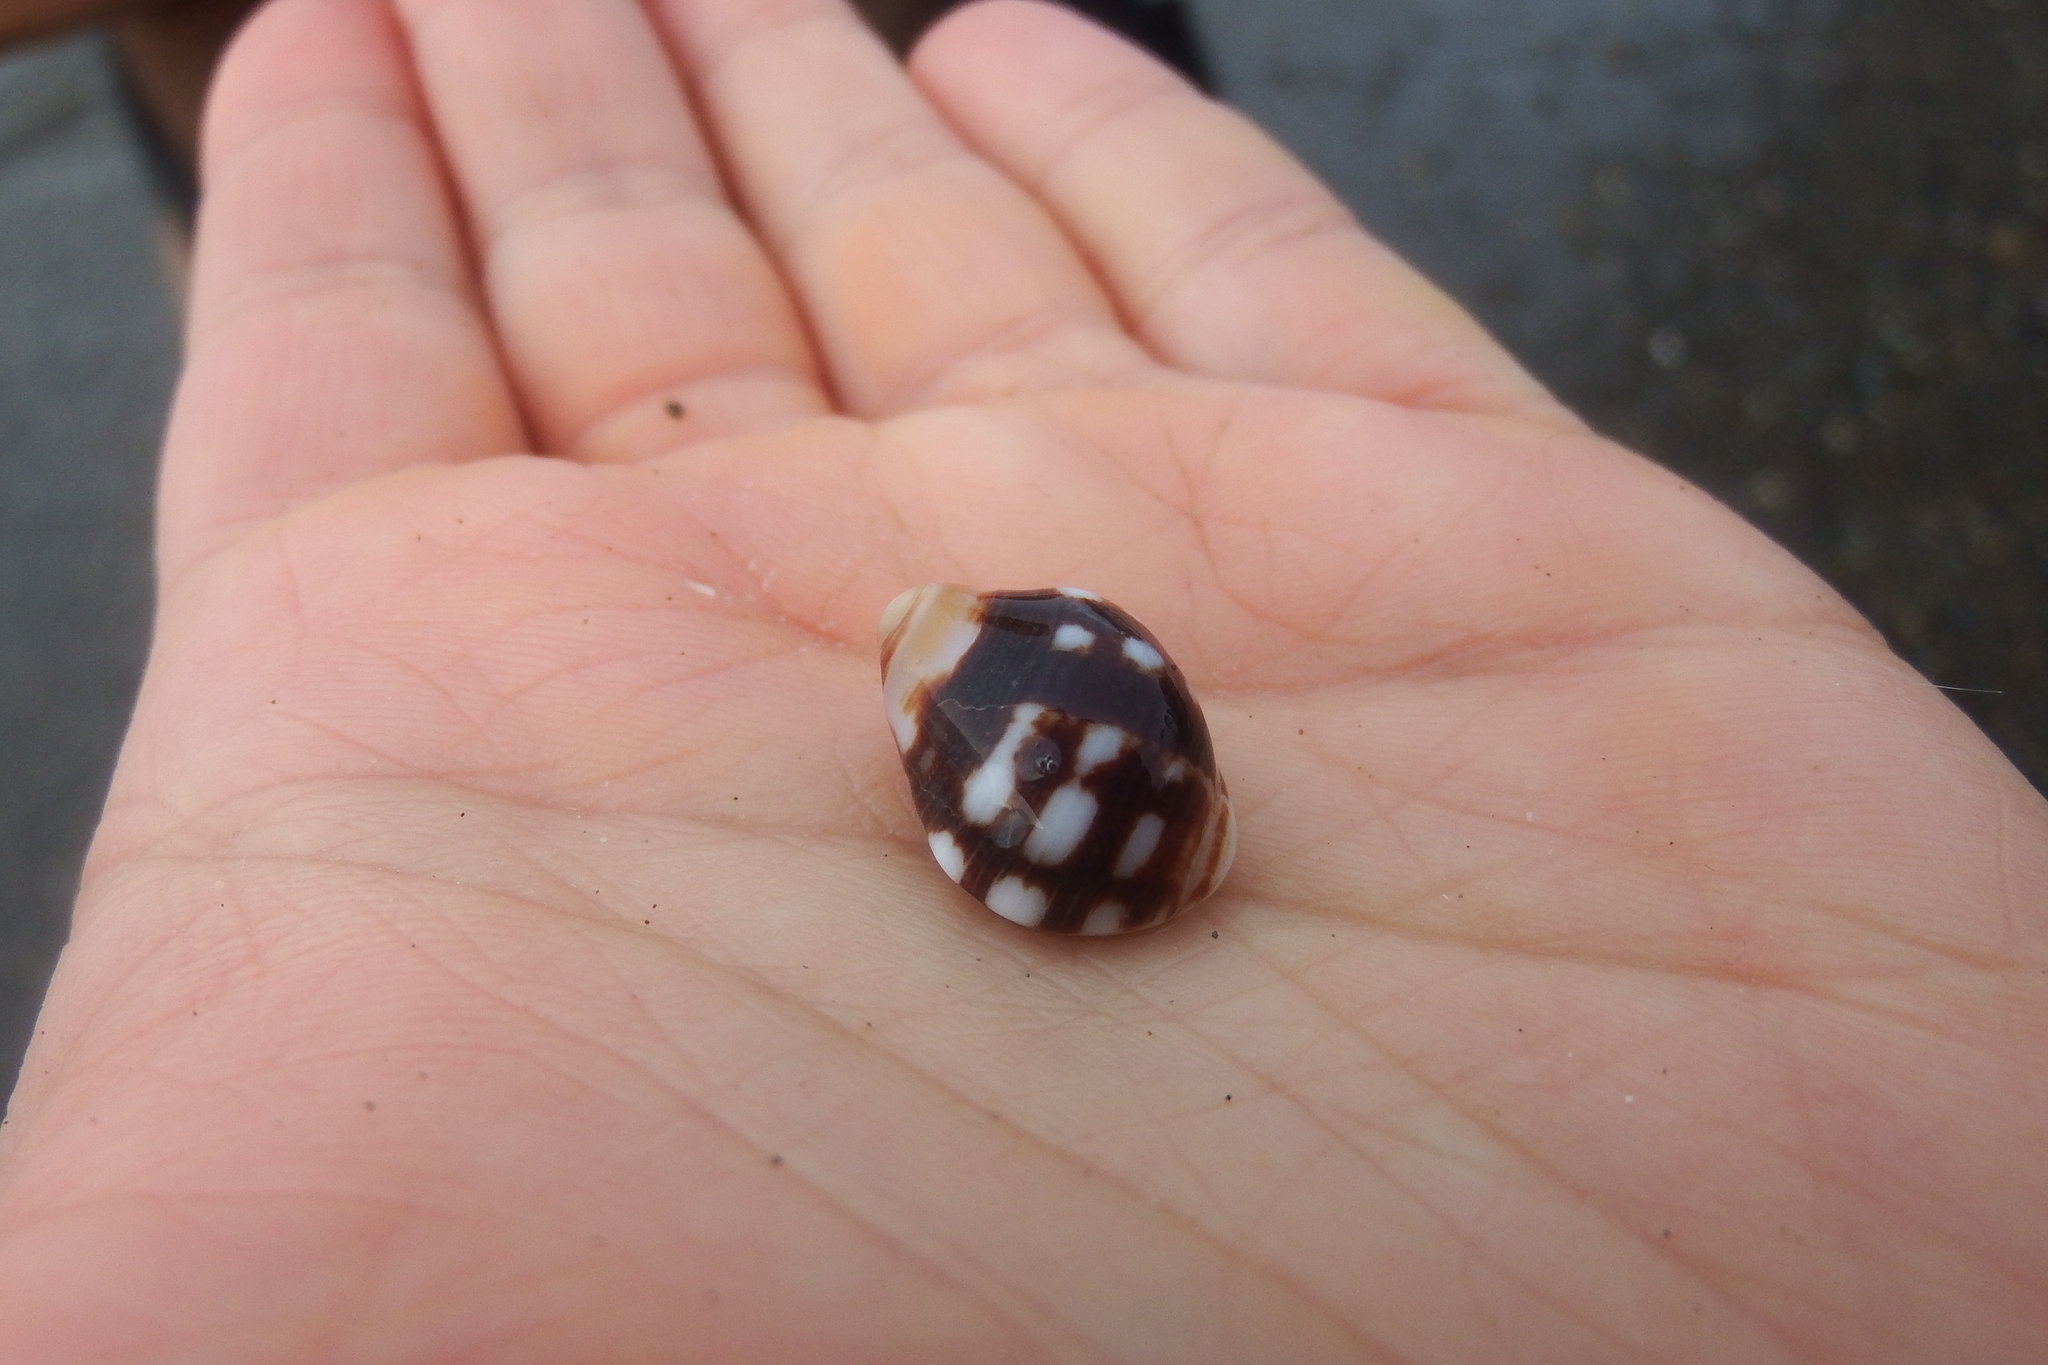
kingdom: Animalia
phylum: Mollusca
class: Gastropoda
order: Neogastropoda
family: Muricidae
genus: Acanthais
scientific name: Acanthais brevidentata
